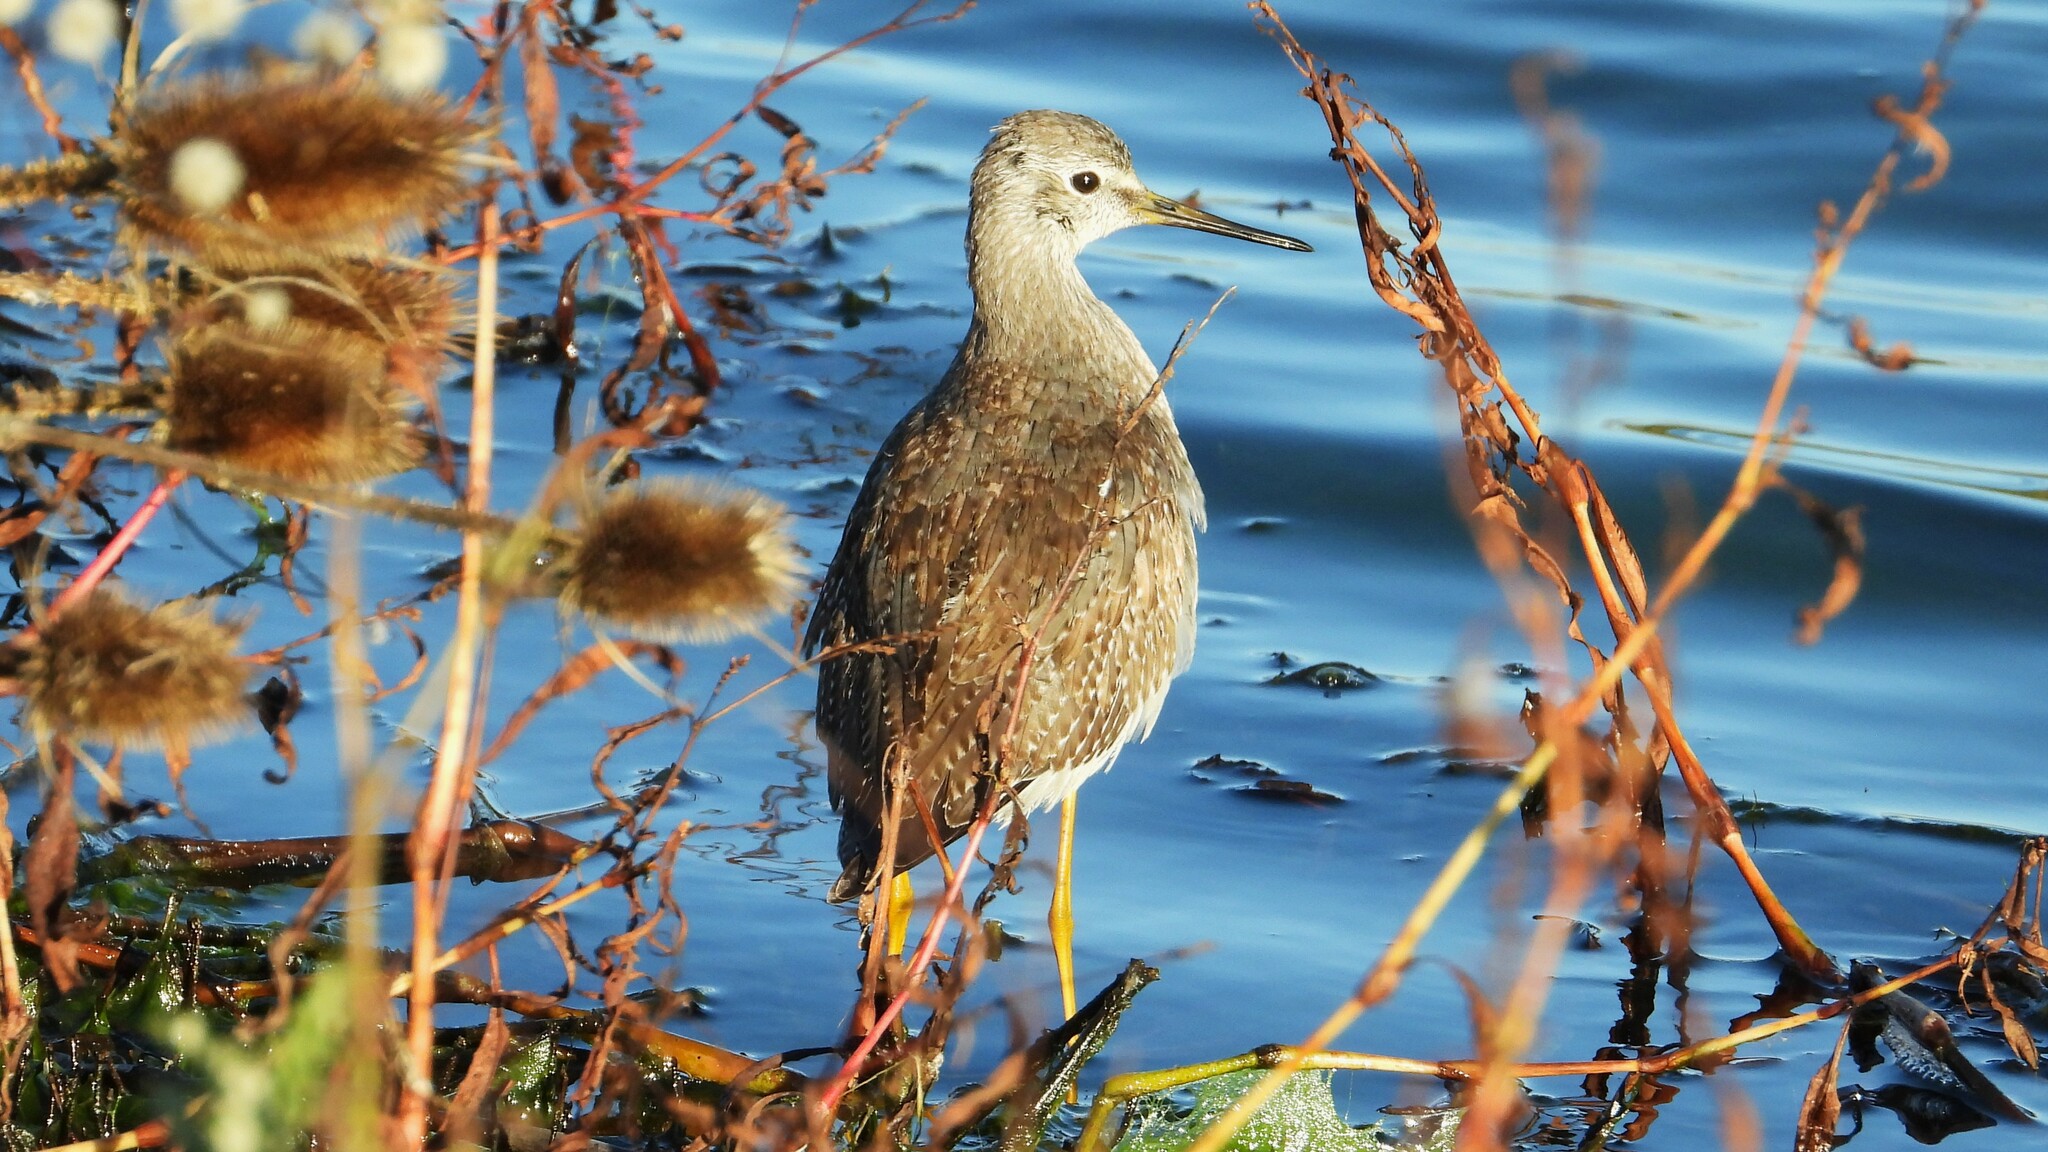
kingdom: Animalia
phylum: Chordata
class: Aves
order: Charadriiformes
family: Scolopacidae
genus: Tringa
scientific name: Tringa flavipes
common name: Lesser yellowlegs
